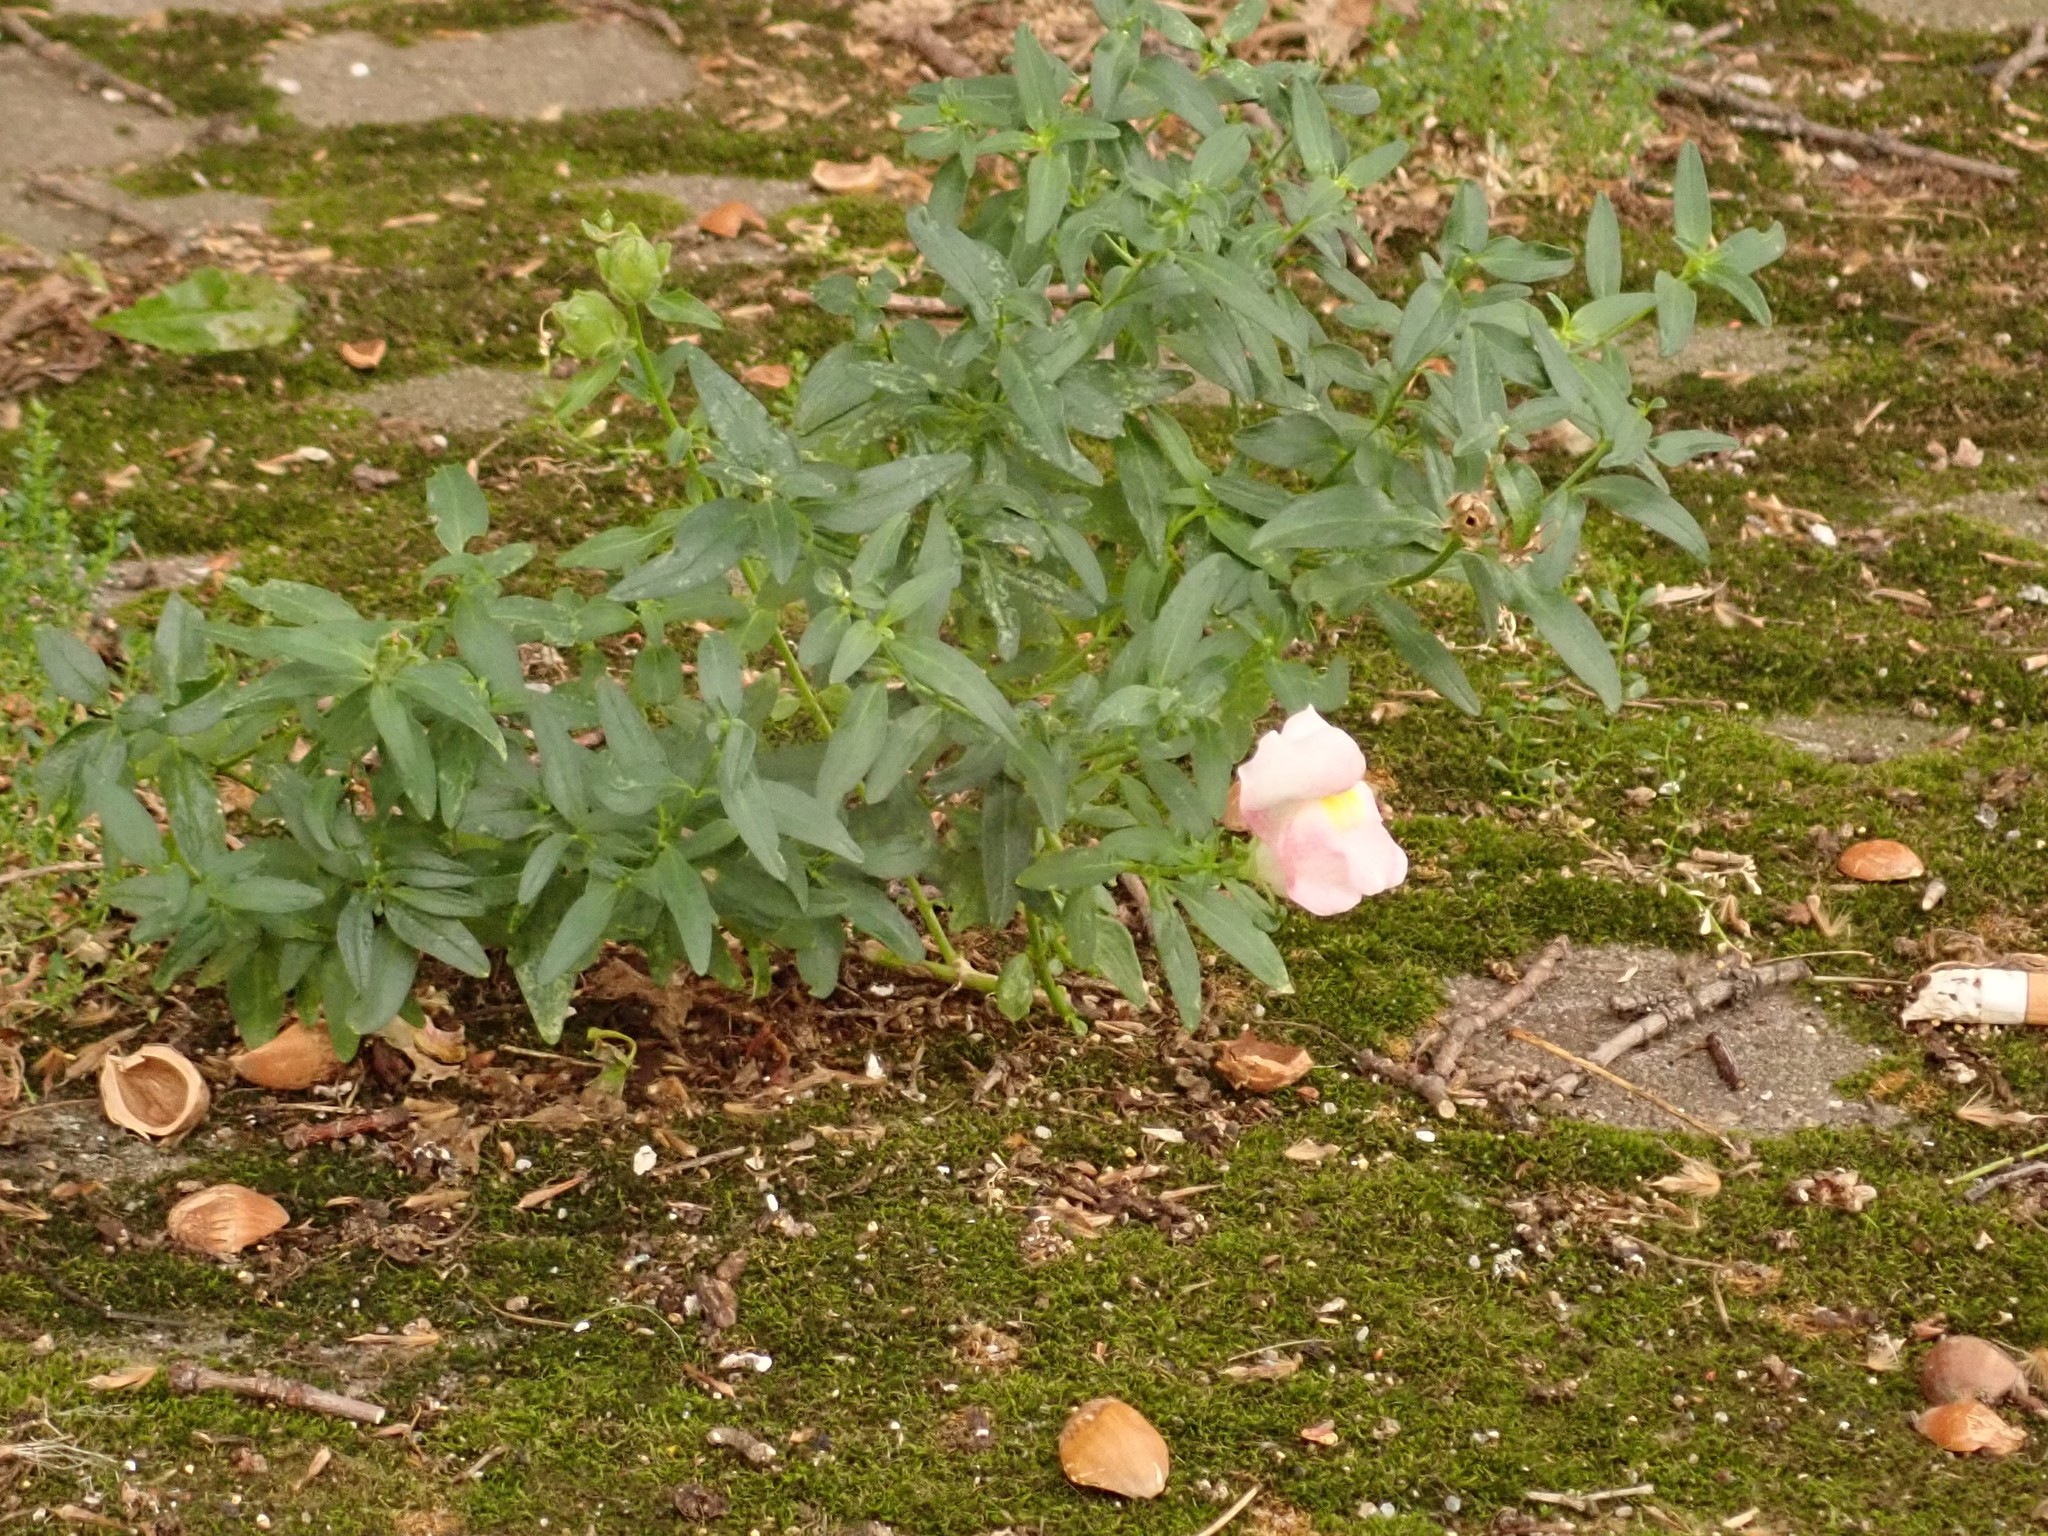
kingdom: Plantae
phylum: Tracheophyta
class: Magnoliopsida
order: Lamiales
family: Plantaginaceae
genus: Antirrhinum
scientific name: Antirrhinum majus
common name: Snapdragon
